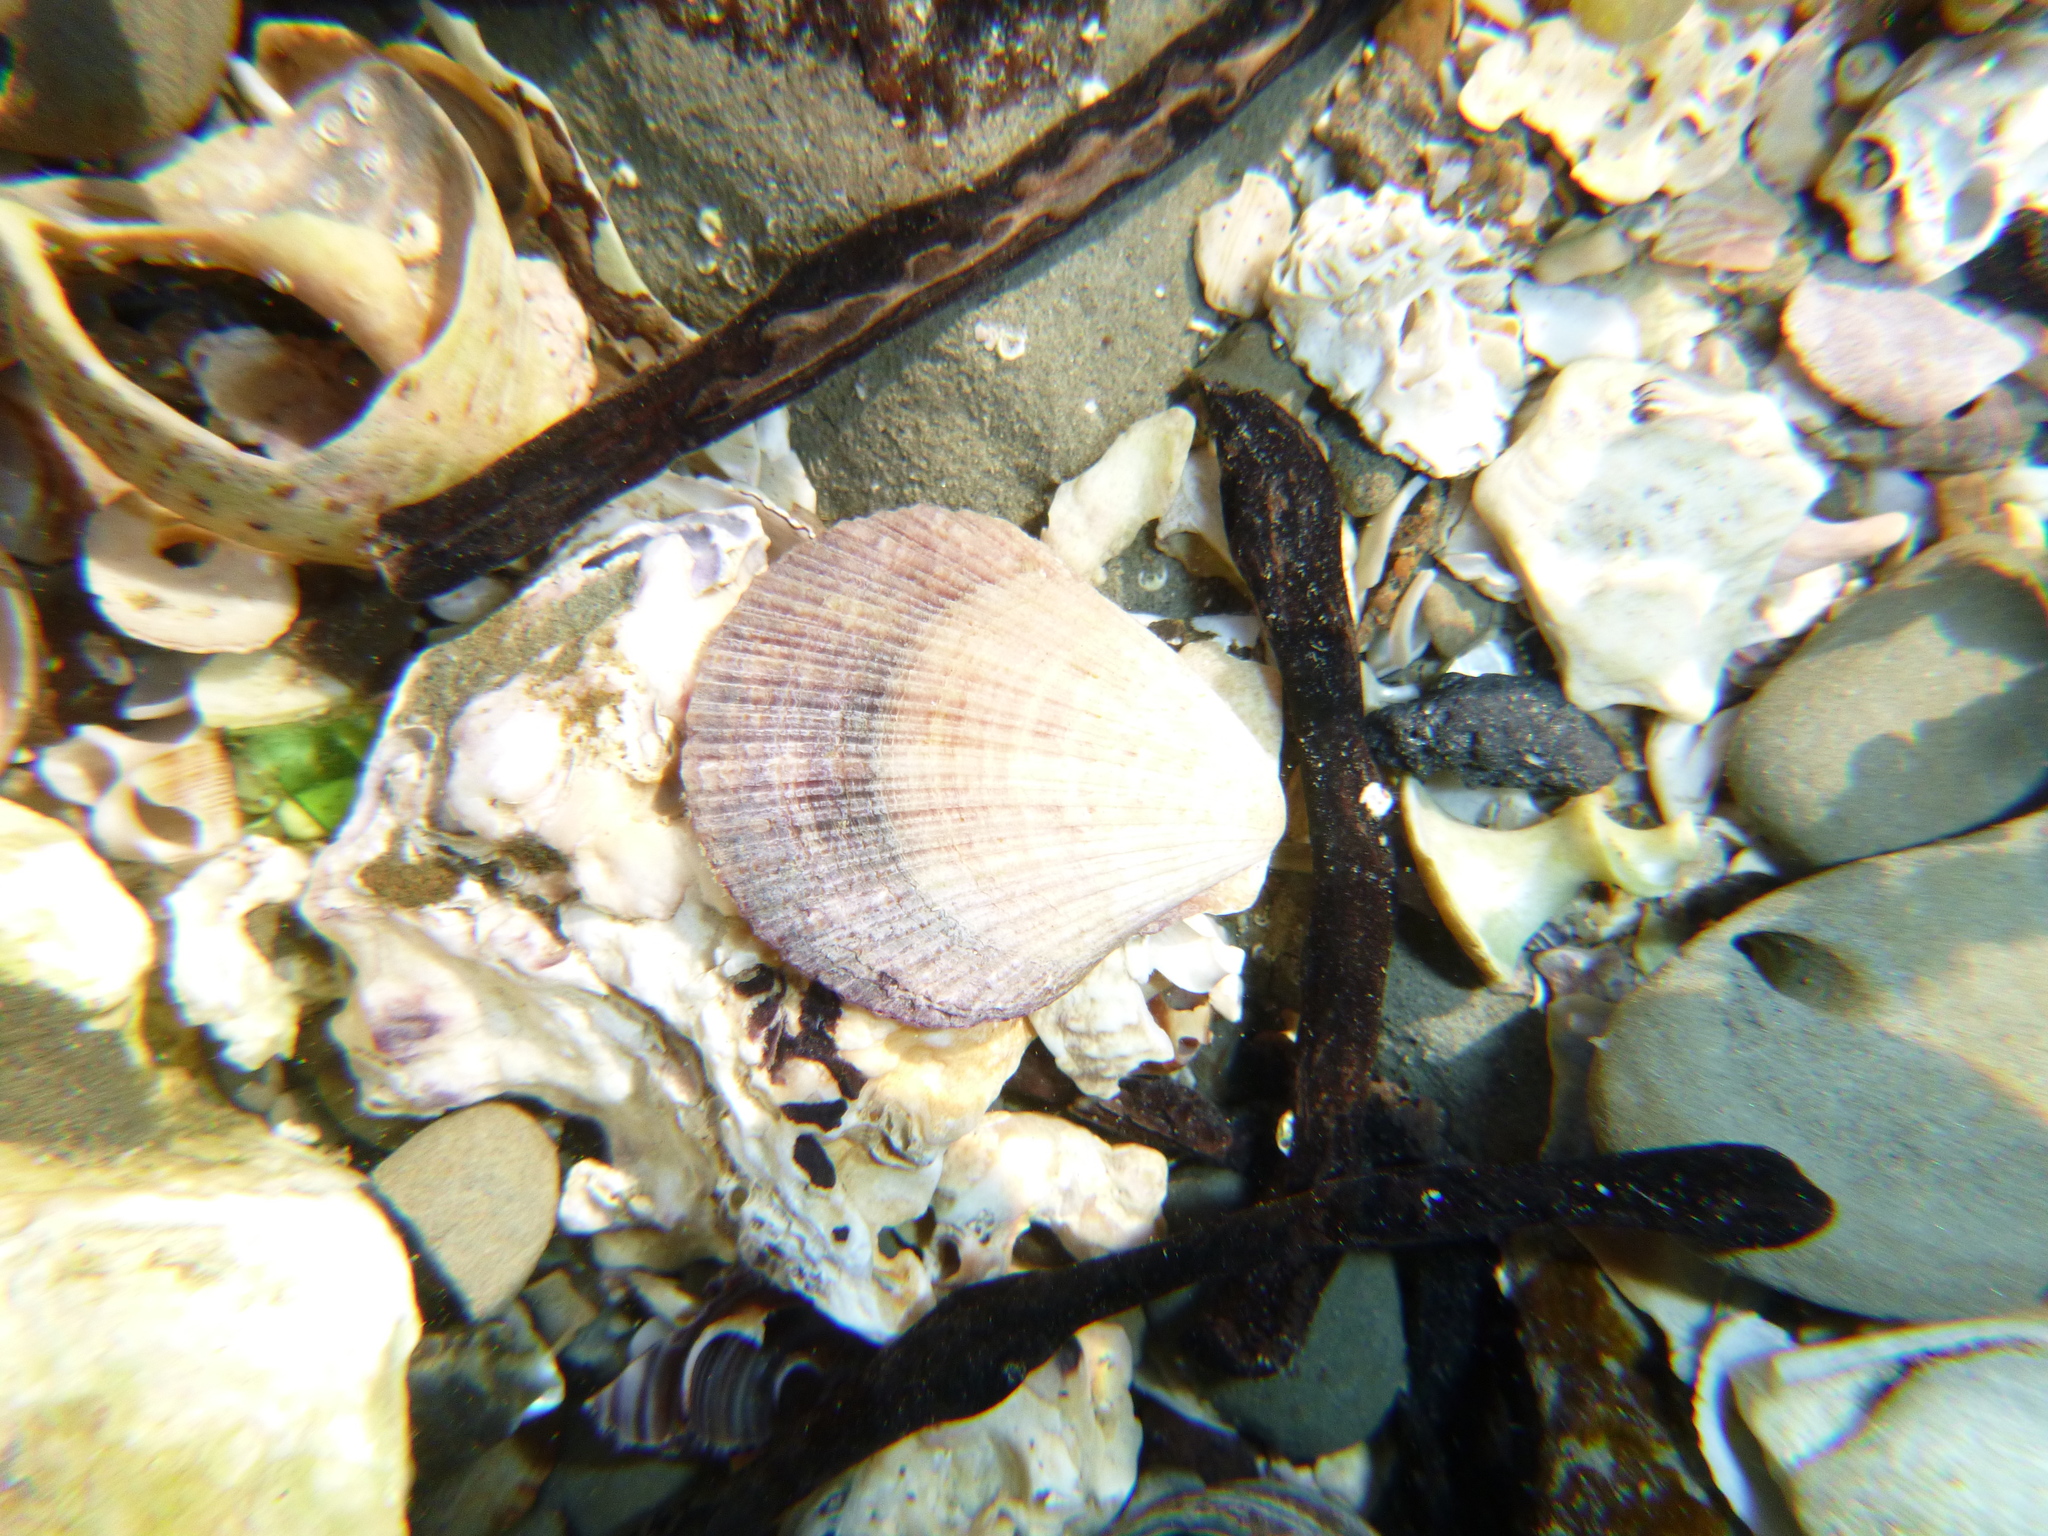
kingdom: Animalia
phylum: Mollusca
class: Bivalvia
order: Pectinida
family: Pectinidae
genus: Talochlamys
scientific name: Talochlamys zelandiae
